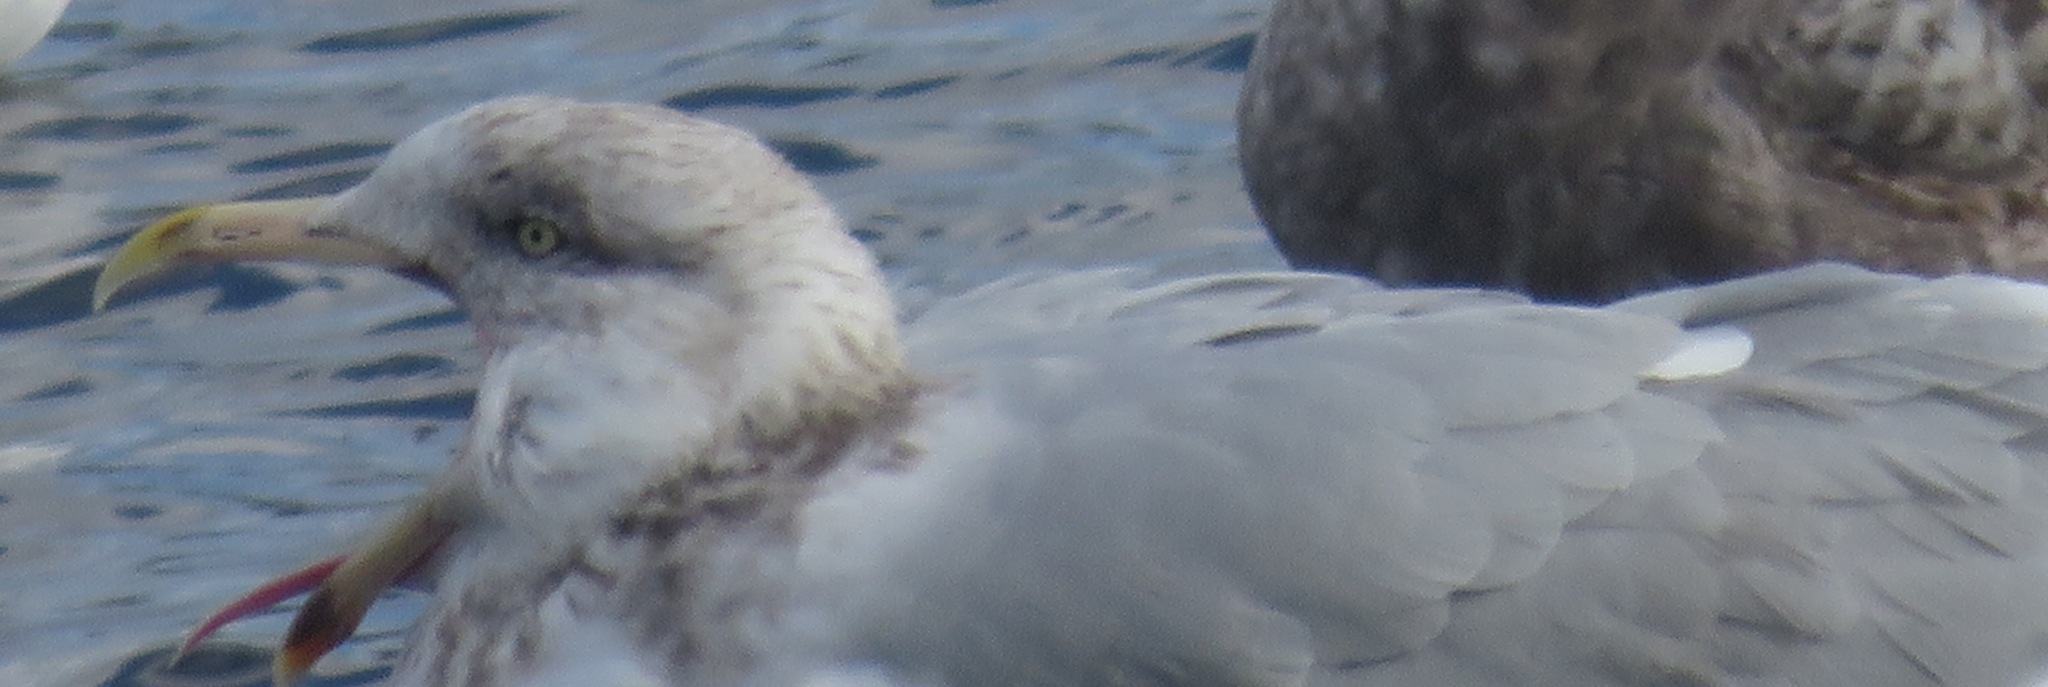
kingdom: Animalia
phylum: Chordata
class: Aves
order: Charadriiformes
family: Laridae
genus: Larus
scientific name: Larus smithsonianus
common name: American herring gull
